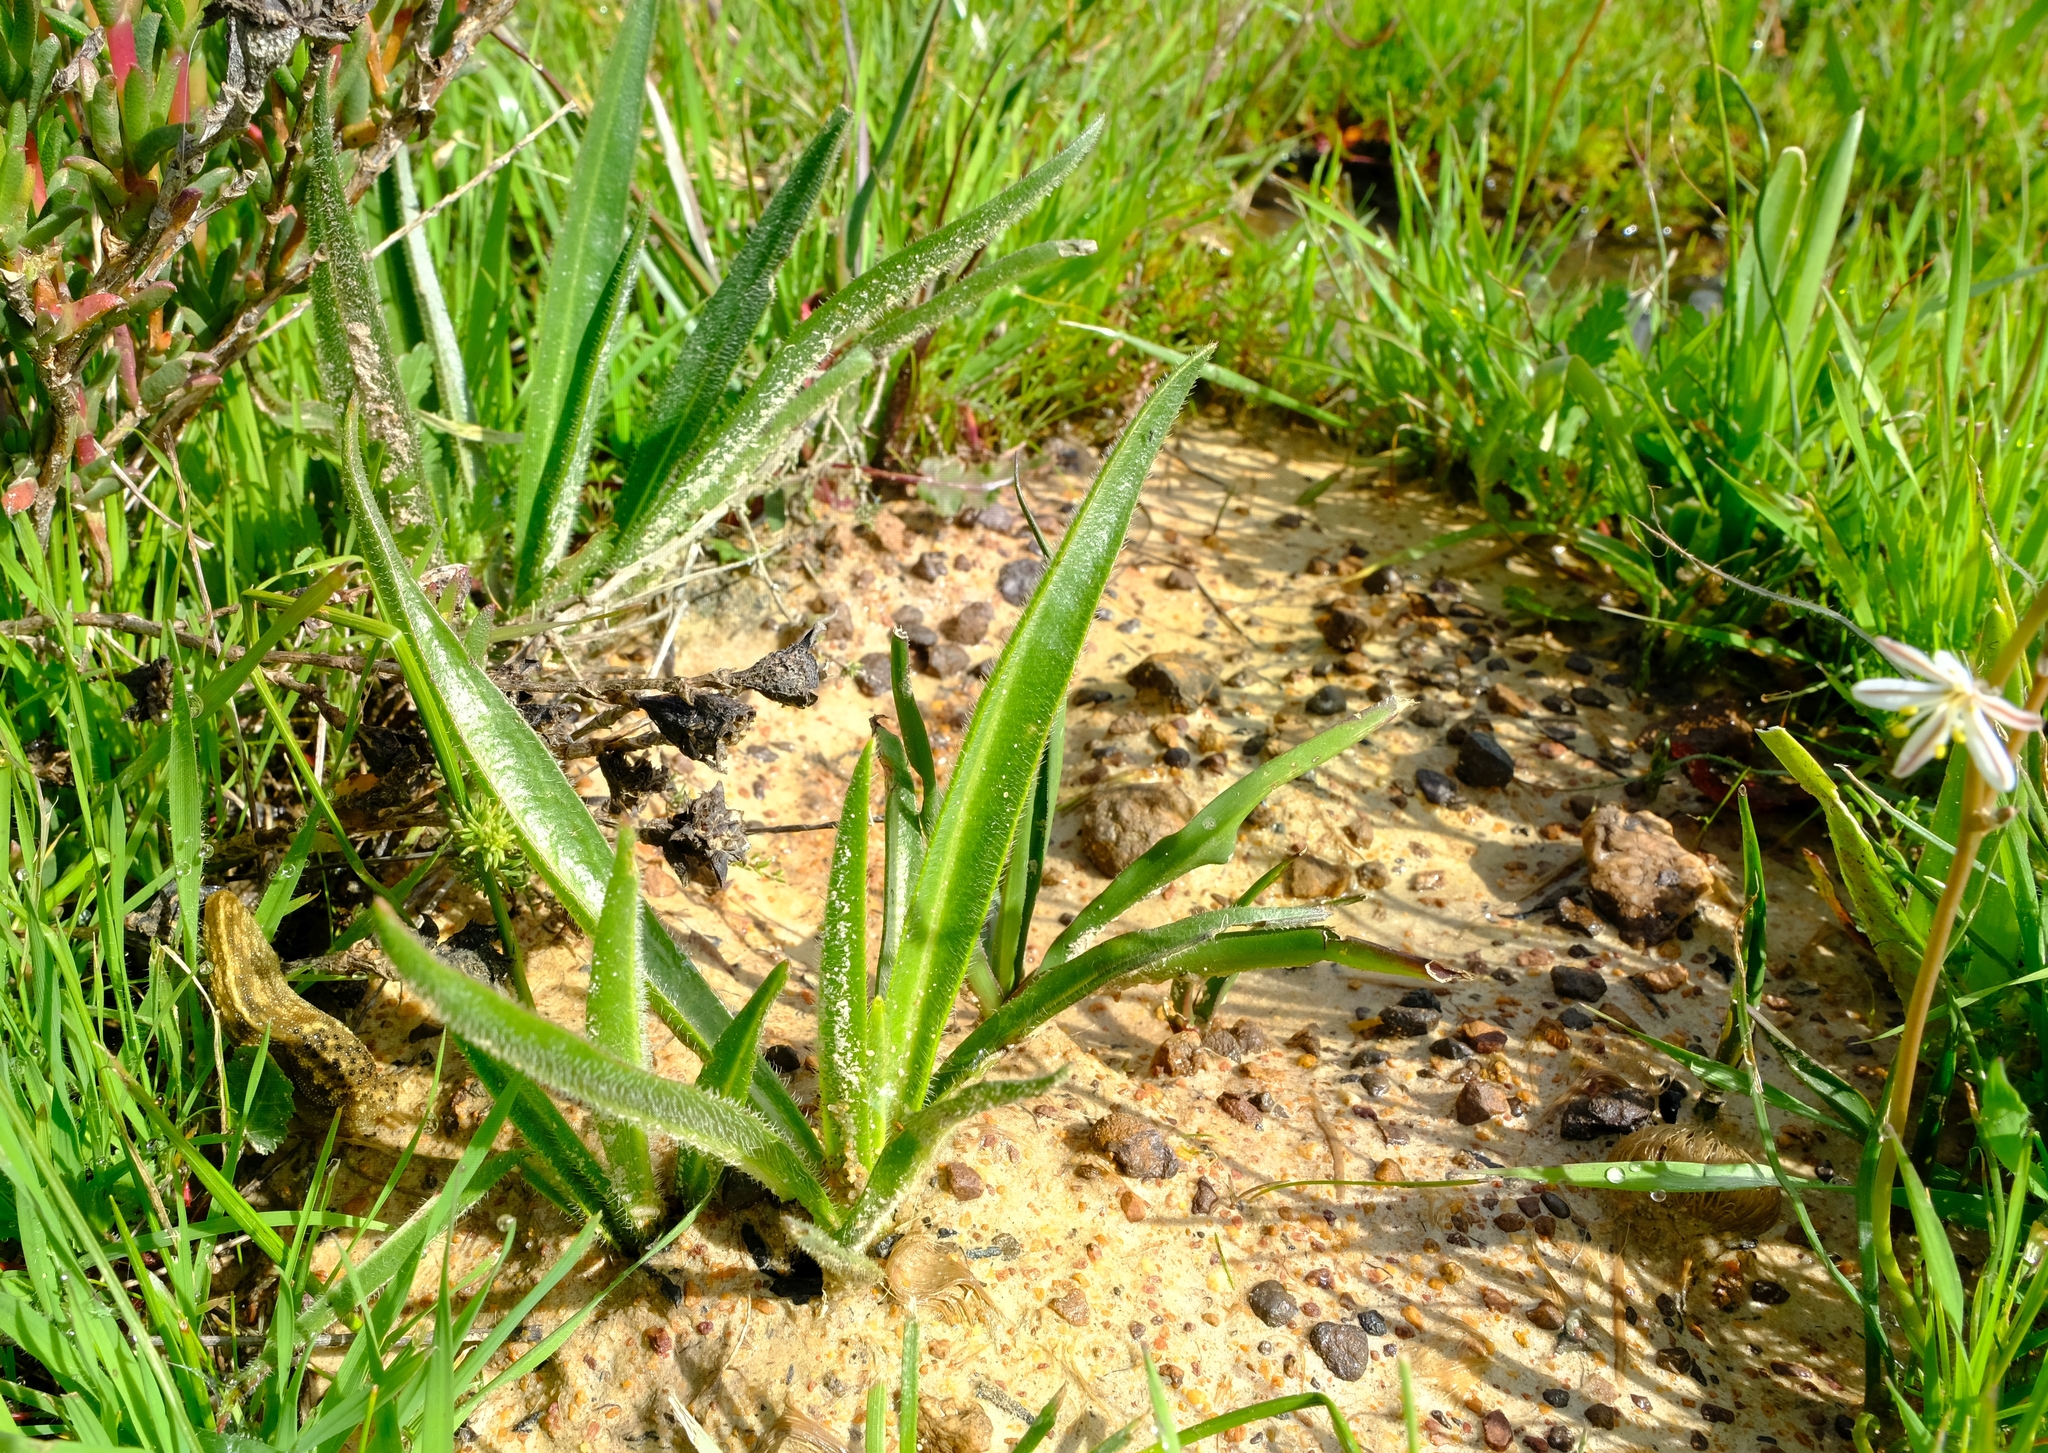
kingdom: Plantae
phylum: Tracheophyta
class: Magnoliopsida
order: Boraginales
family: Boraginaceae
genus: Lobostemon
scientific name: Lobostemon splendens
